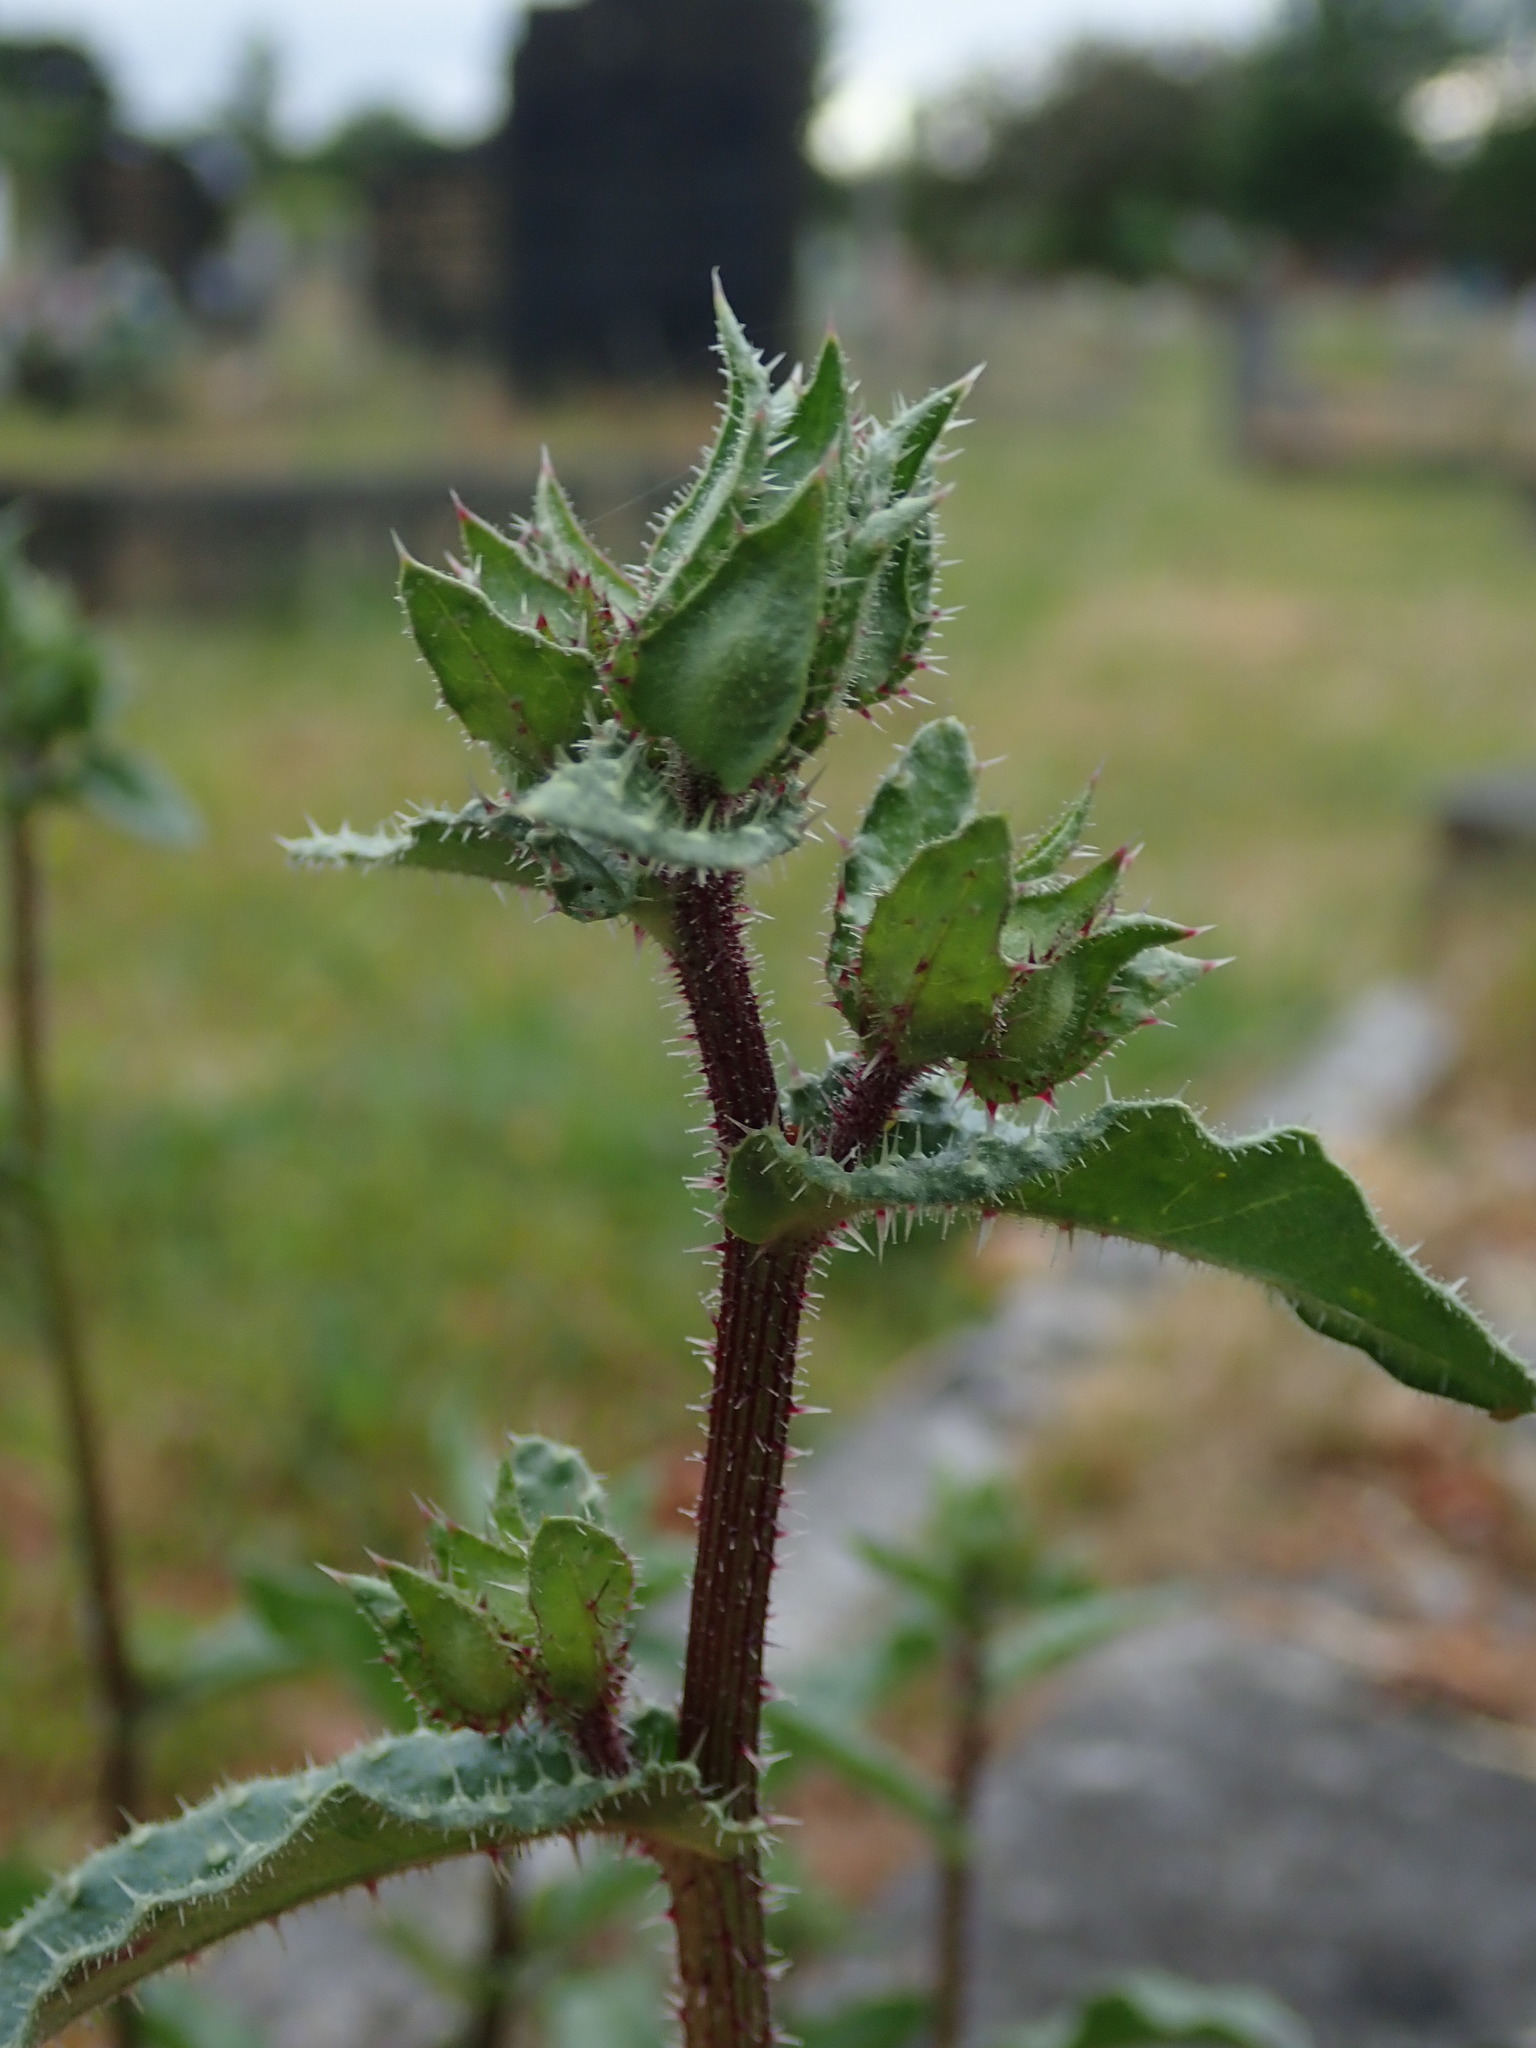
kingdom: Plantae
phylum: Tracheophyta
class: Magnoliopsida
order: Asterales
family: Asteraceae
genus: Helminthotheca
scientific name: Helminthotheca echioides
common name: Ox-tongue
